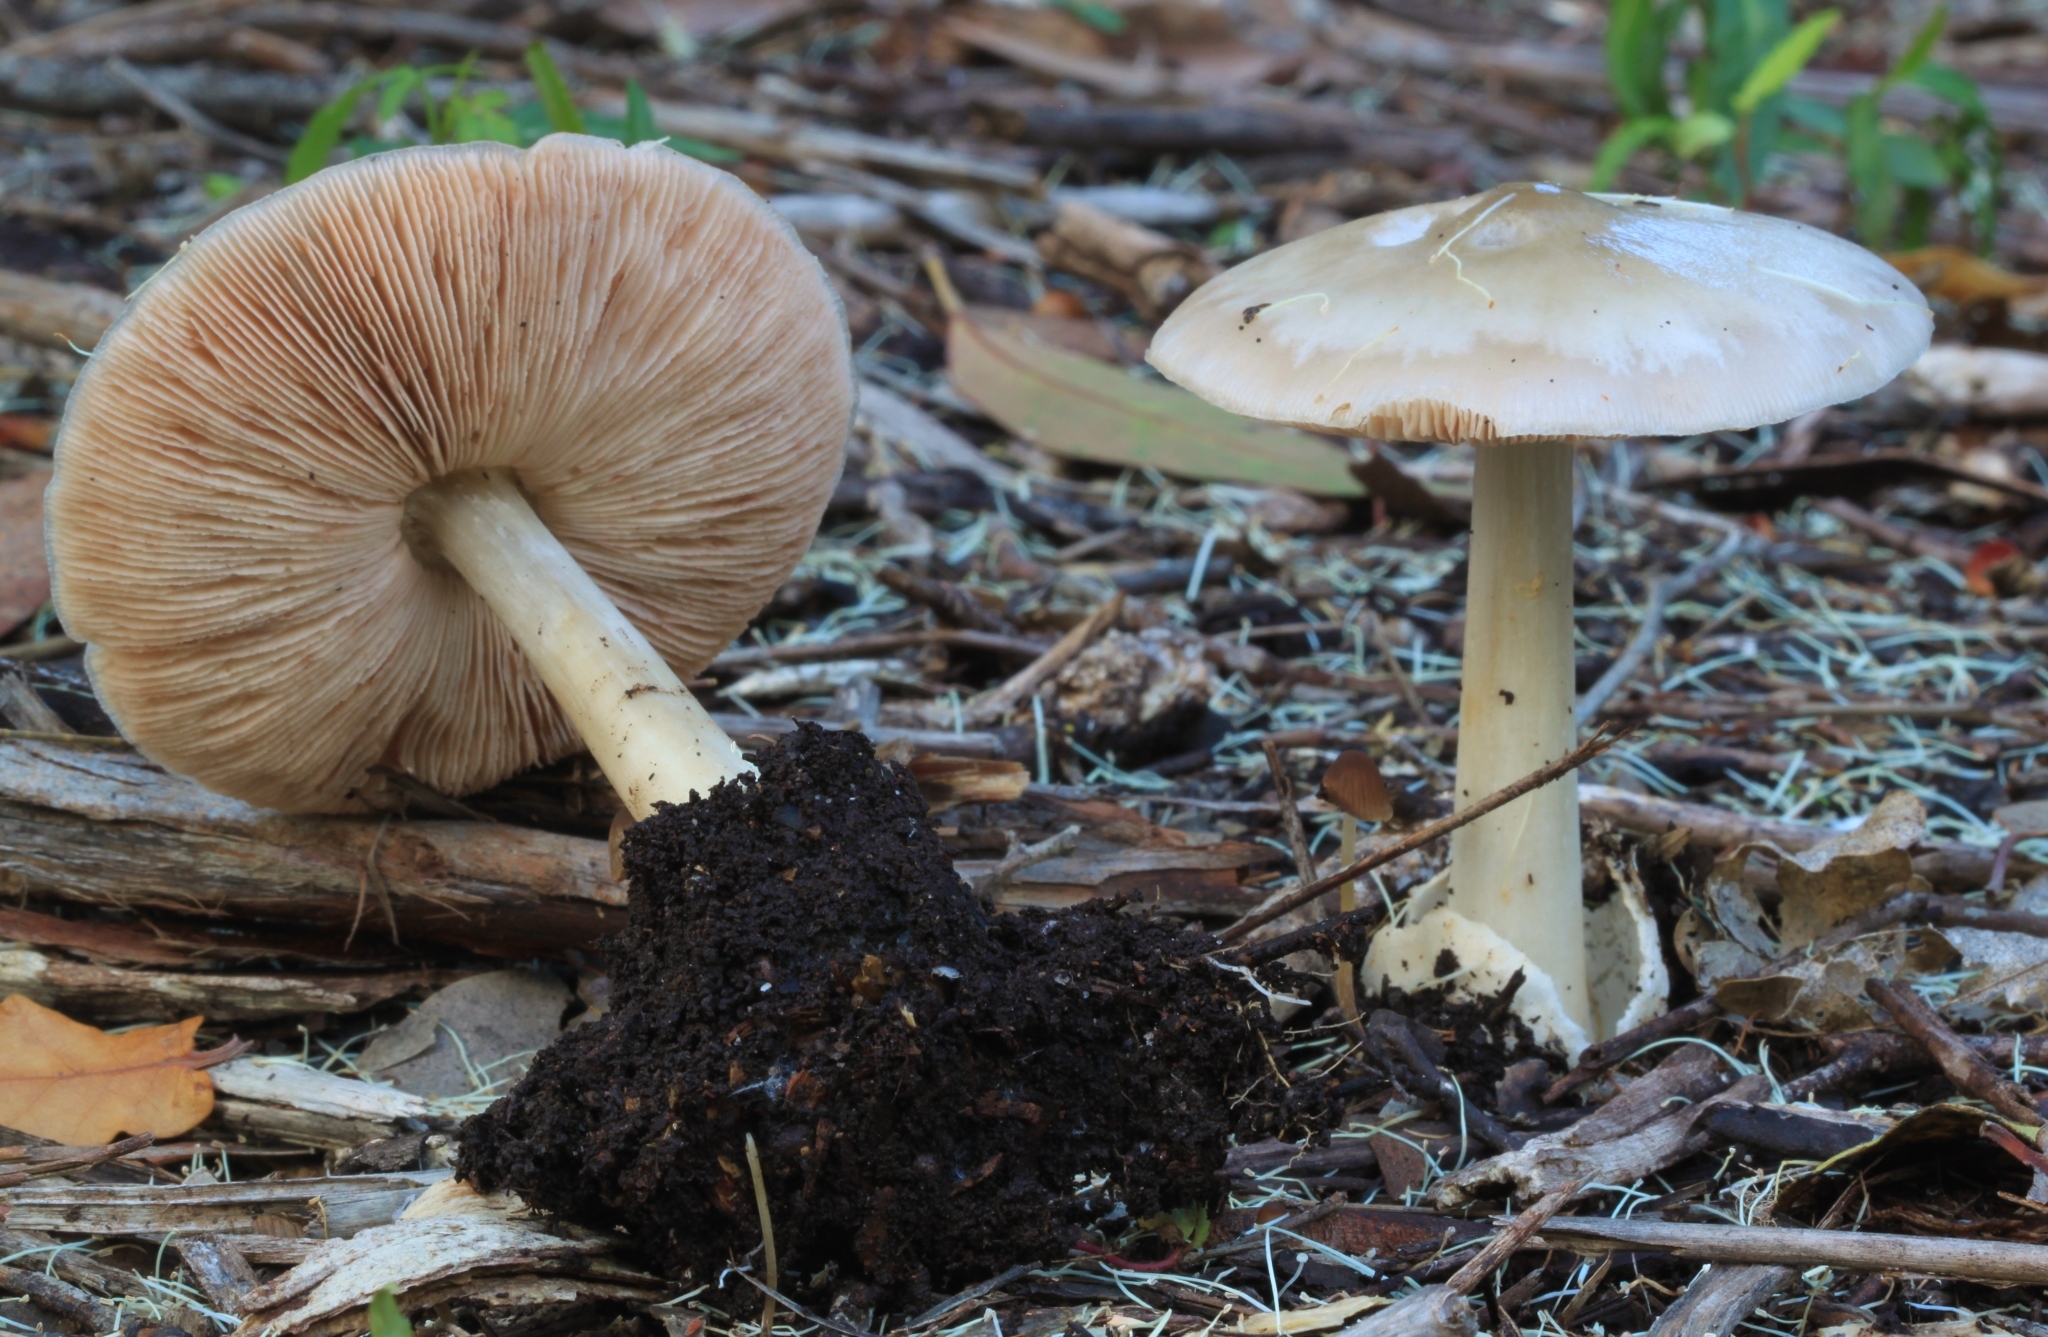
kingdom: Fungi
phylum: Basidiomycota
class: Agaricomycetes
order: Agaricales
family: Pluteaceae
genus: Volvopluteus
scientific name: Volvopluteus gloiocephalus
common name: Stubble rosegill
